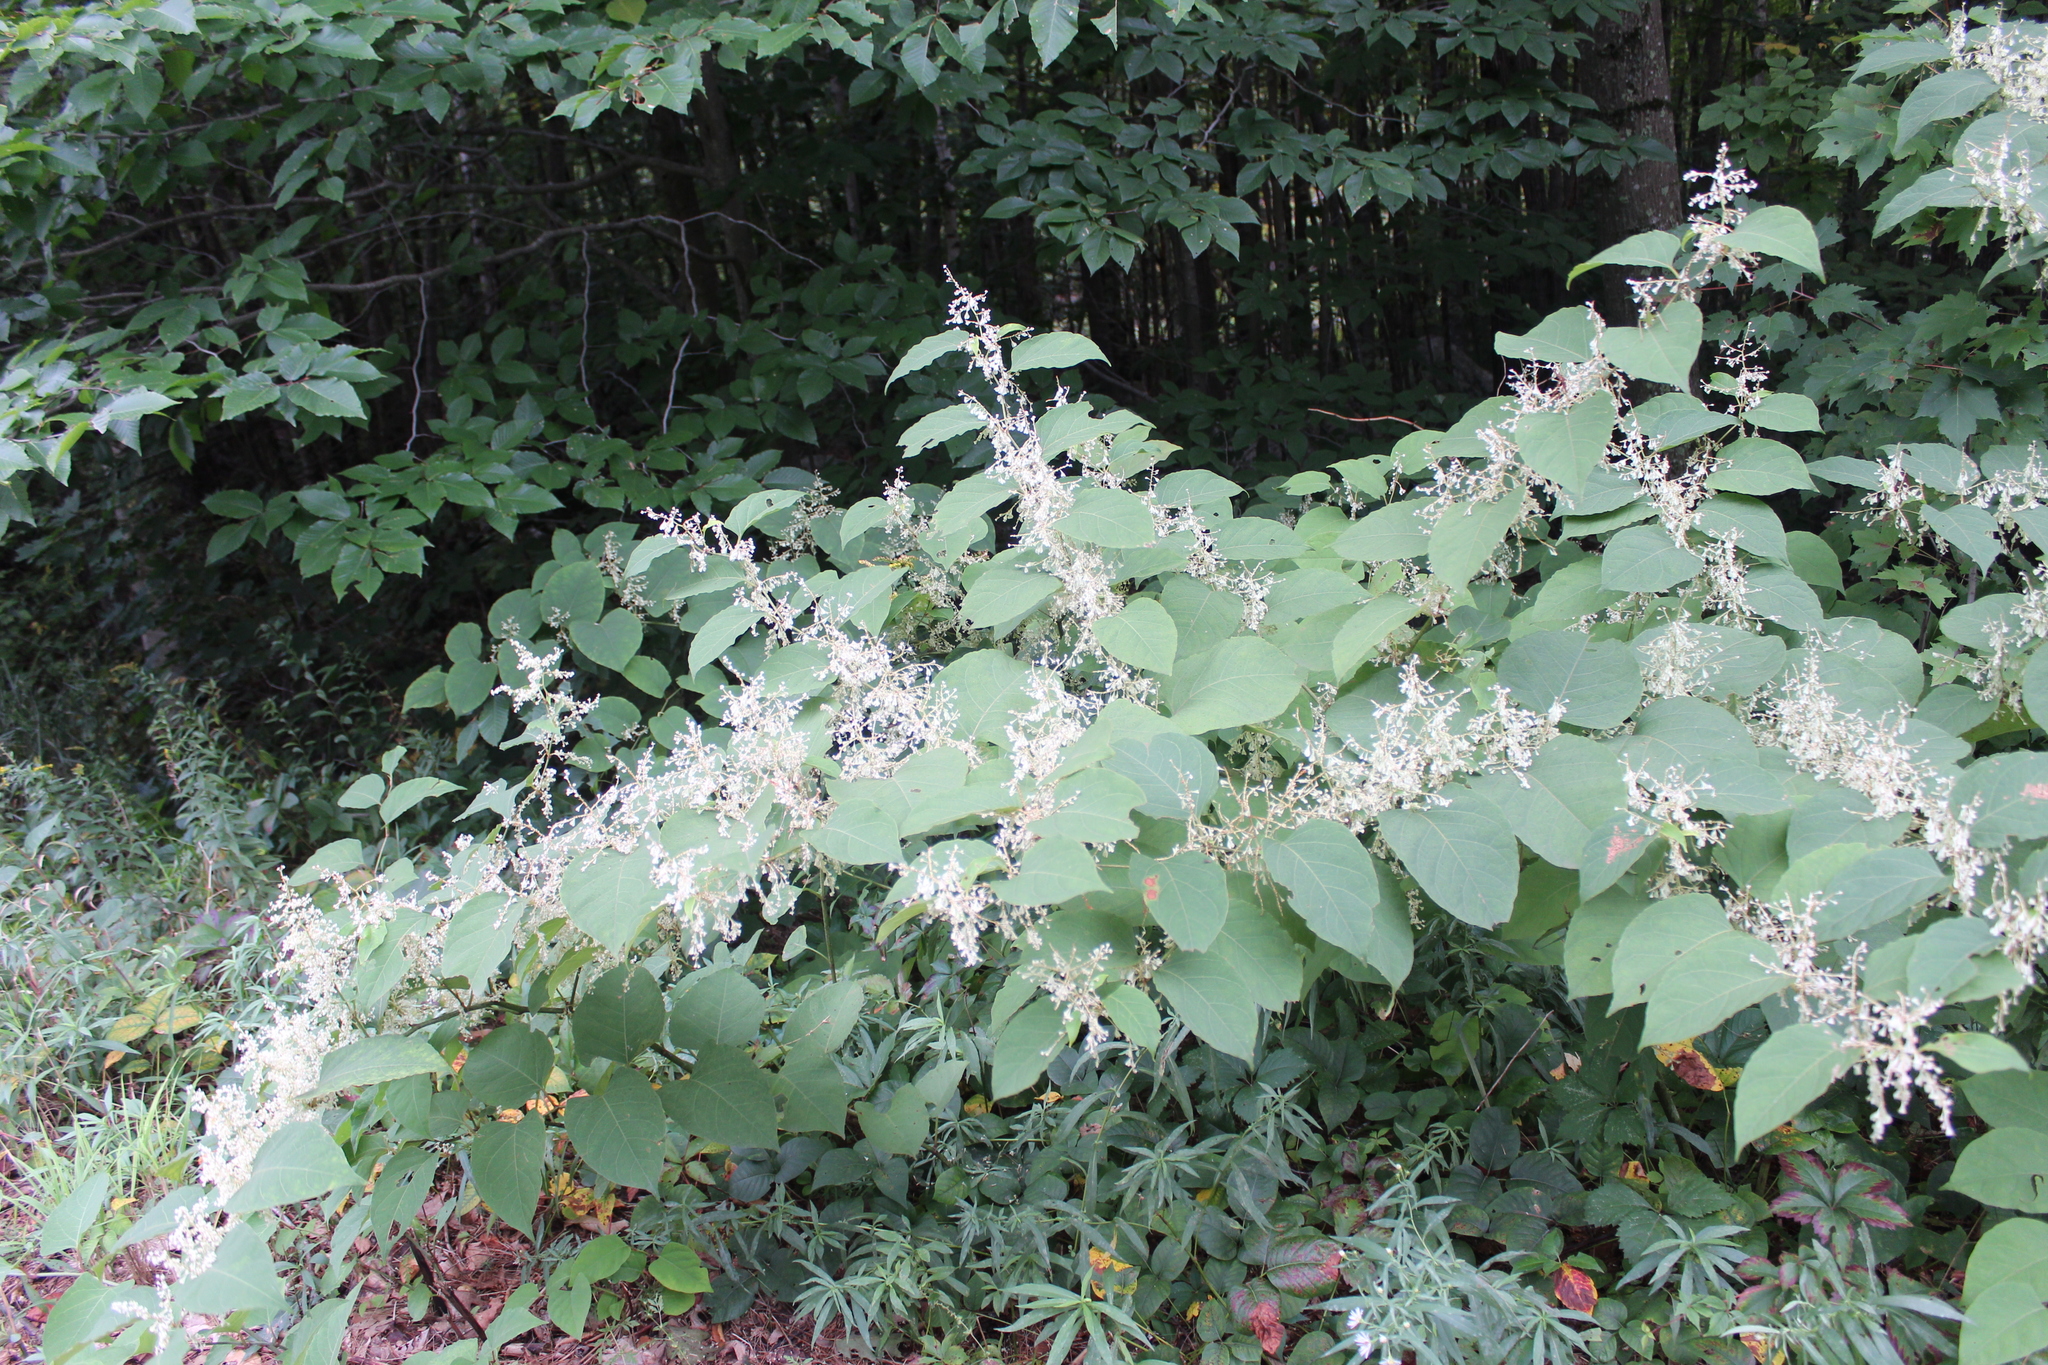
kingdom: Plantae
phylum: Tracheophyta
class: Magnoliopsida
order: Caryophyllales
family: Polygonaceae
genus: Reynoutria
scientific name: Reynoutria japonica
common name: Japanese knotweed
